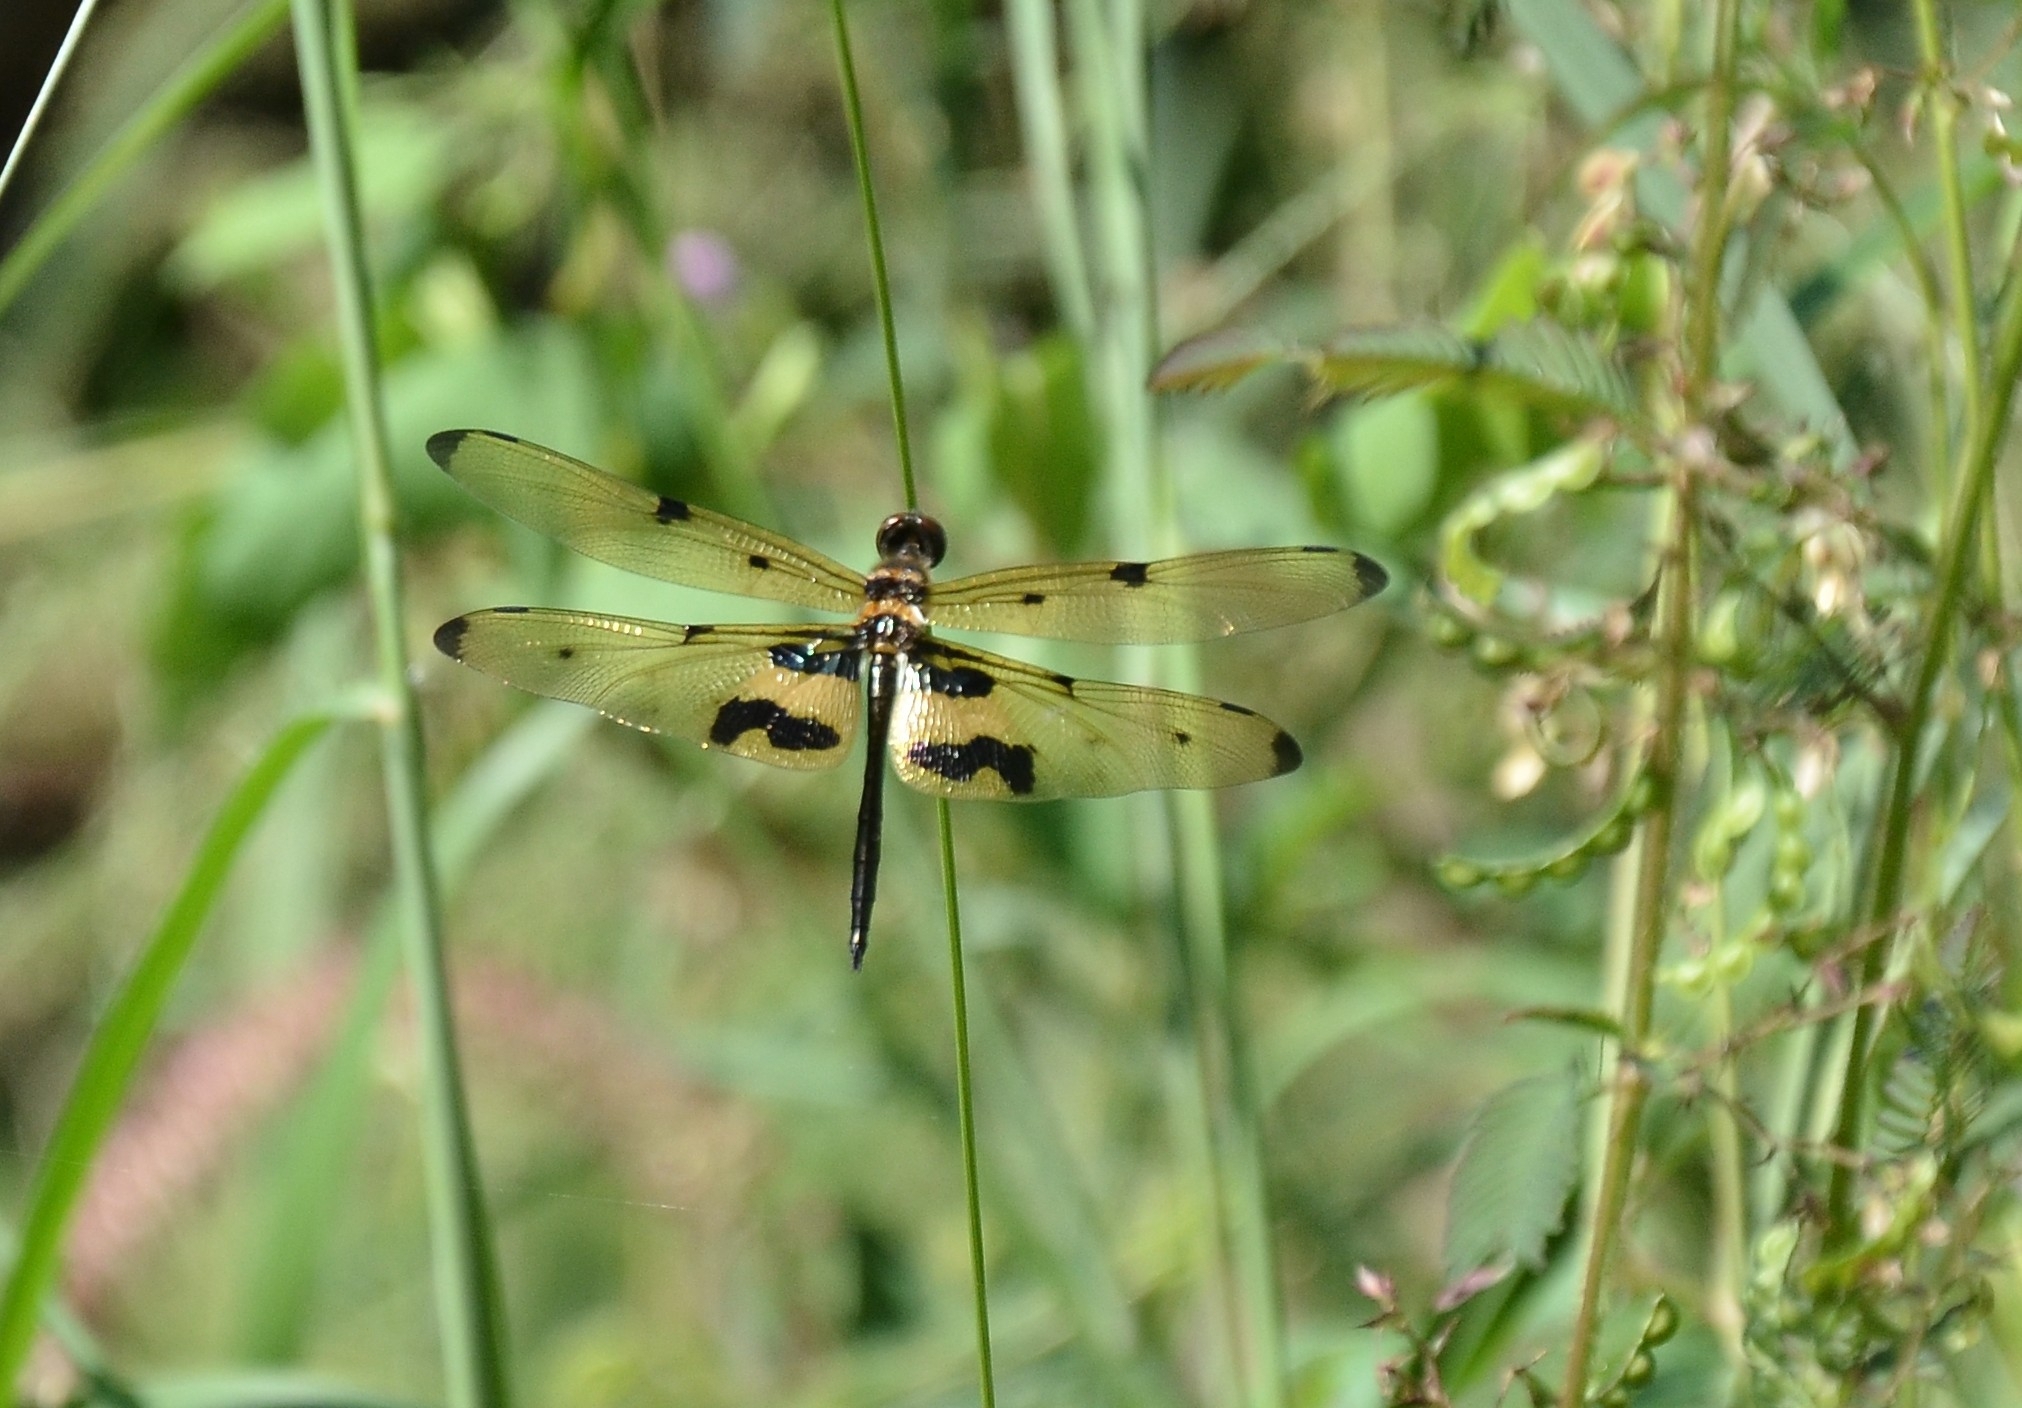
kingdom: Animalia
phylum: Arthropoda
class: Insecta
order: Odonata
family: Libellulidae
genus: Rhyothemis
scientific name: Rhyothemis variegata
